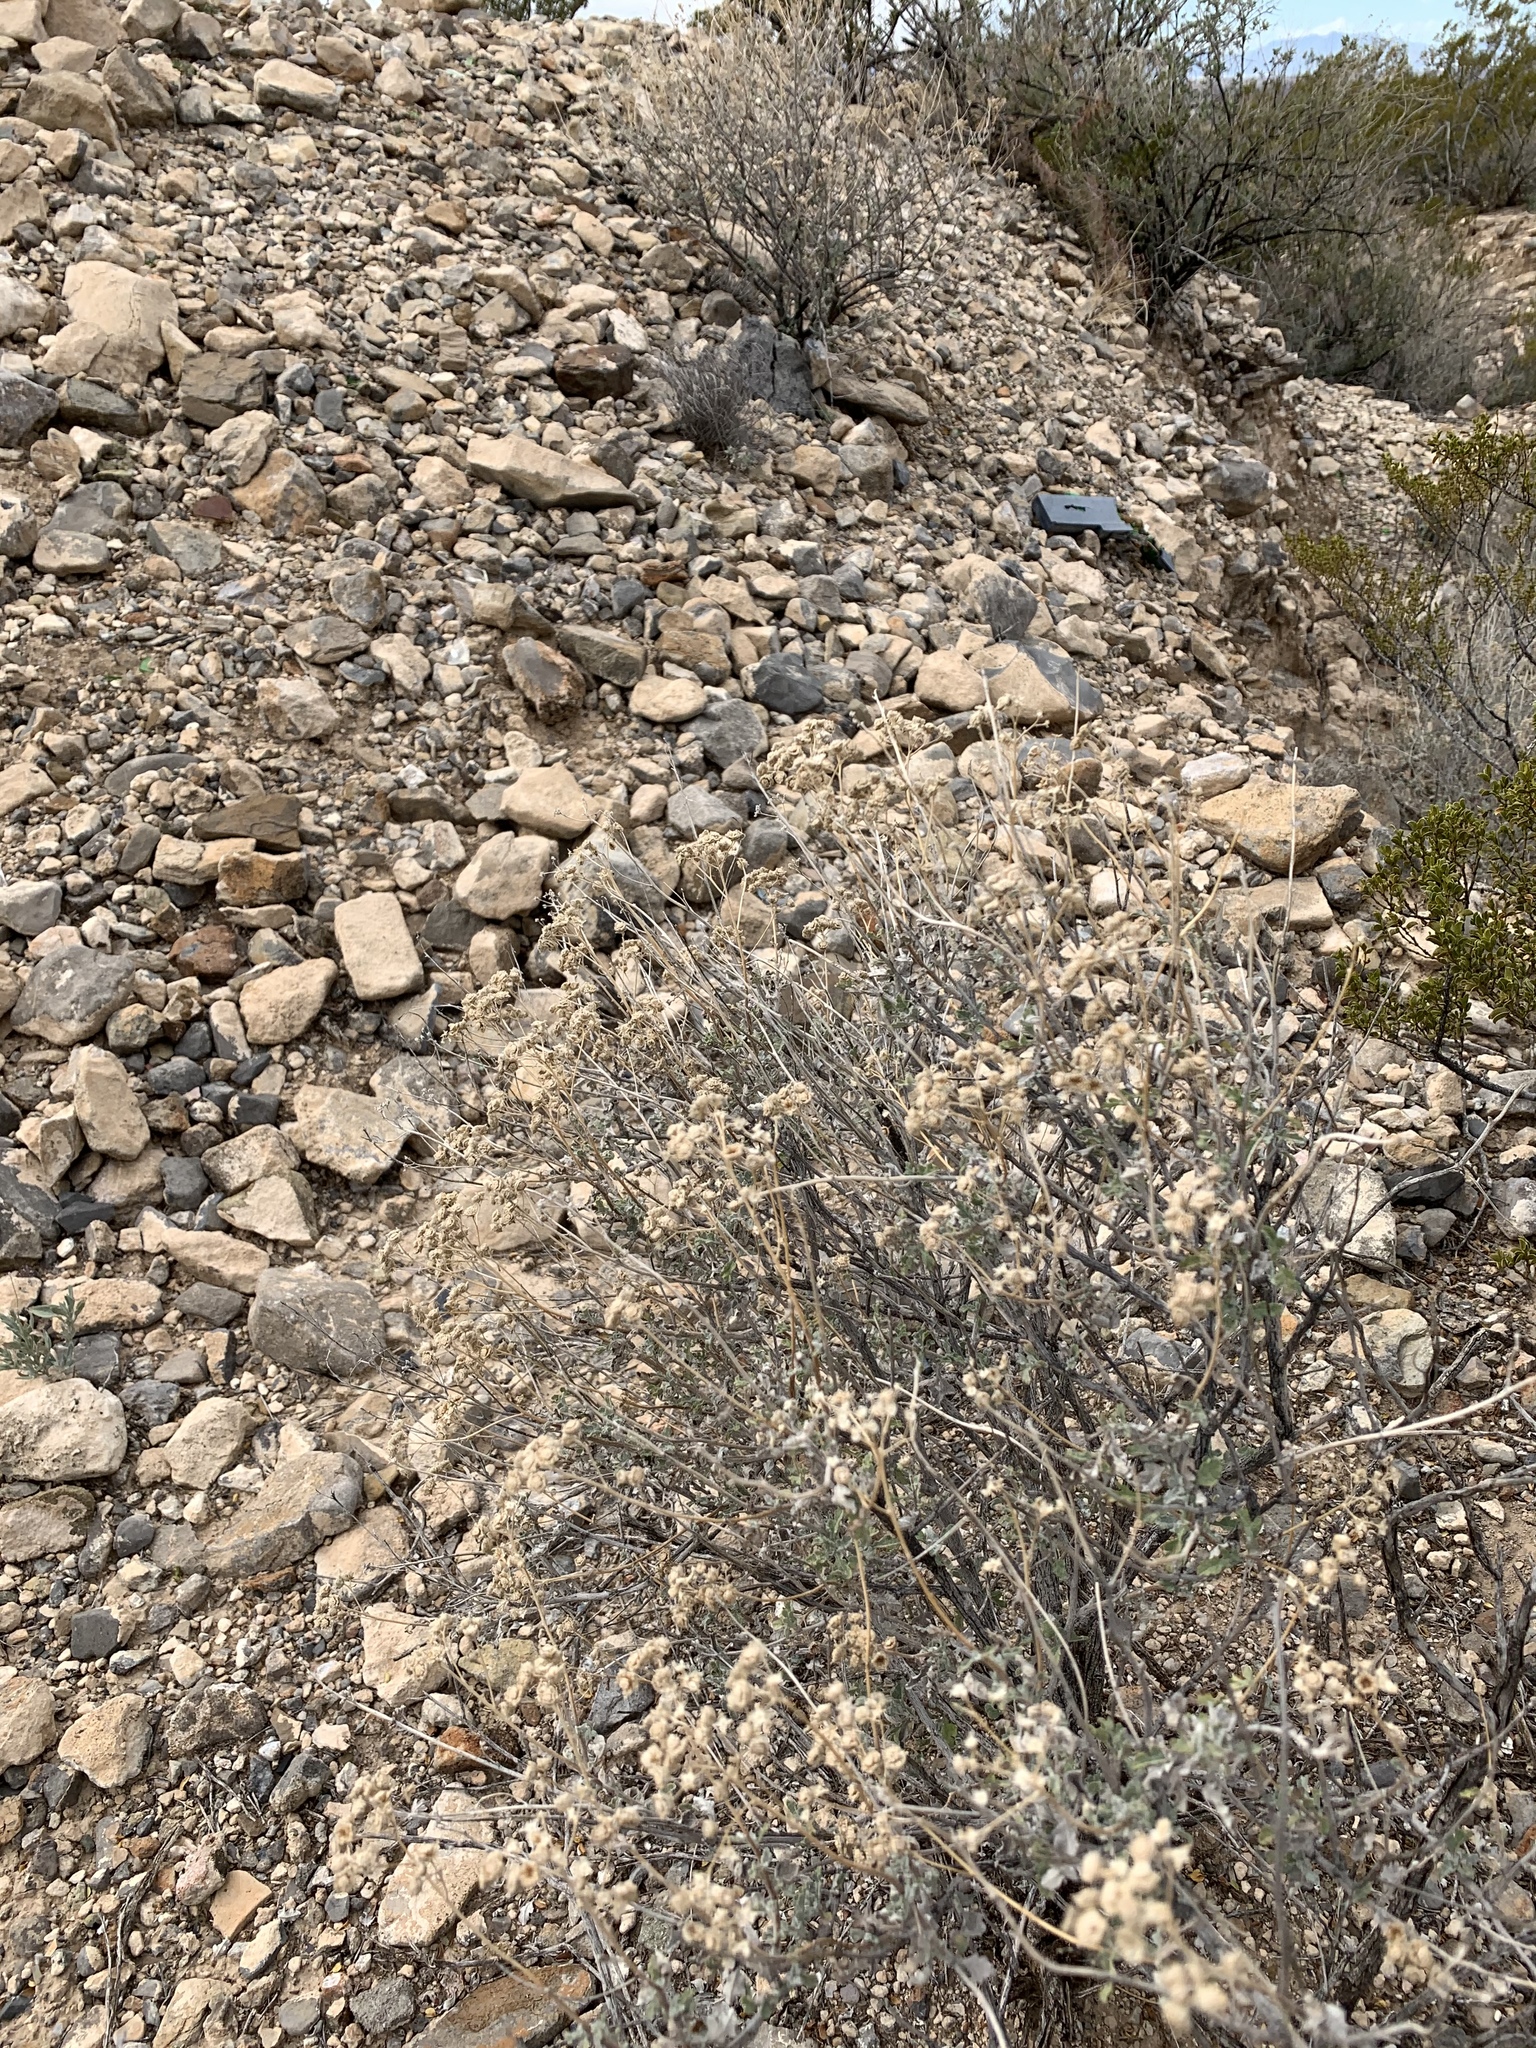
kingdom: Plantae
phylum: Tracheophyta
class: Magnoliopsida
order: Asterales
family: Asteraceae
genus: Parthenium
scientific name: Parthenium incanum
